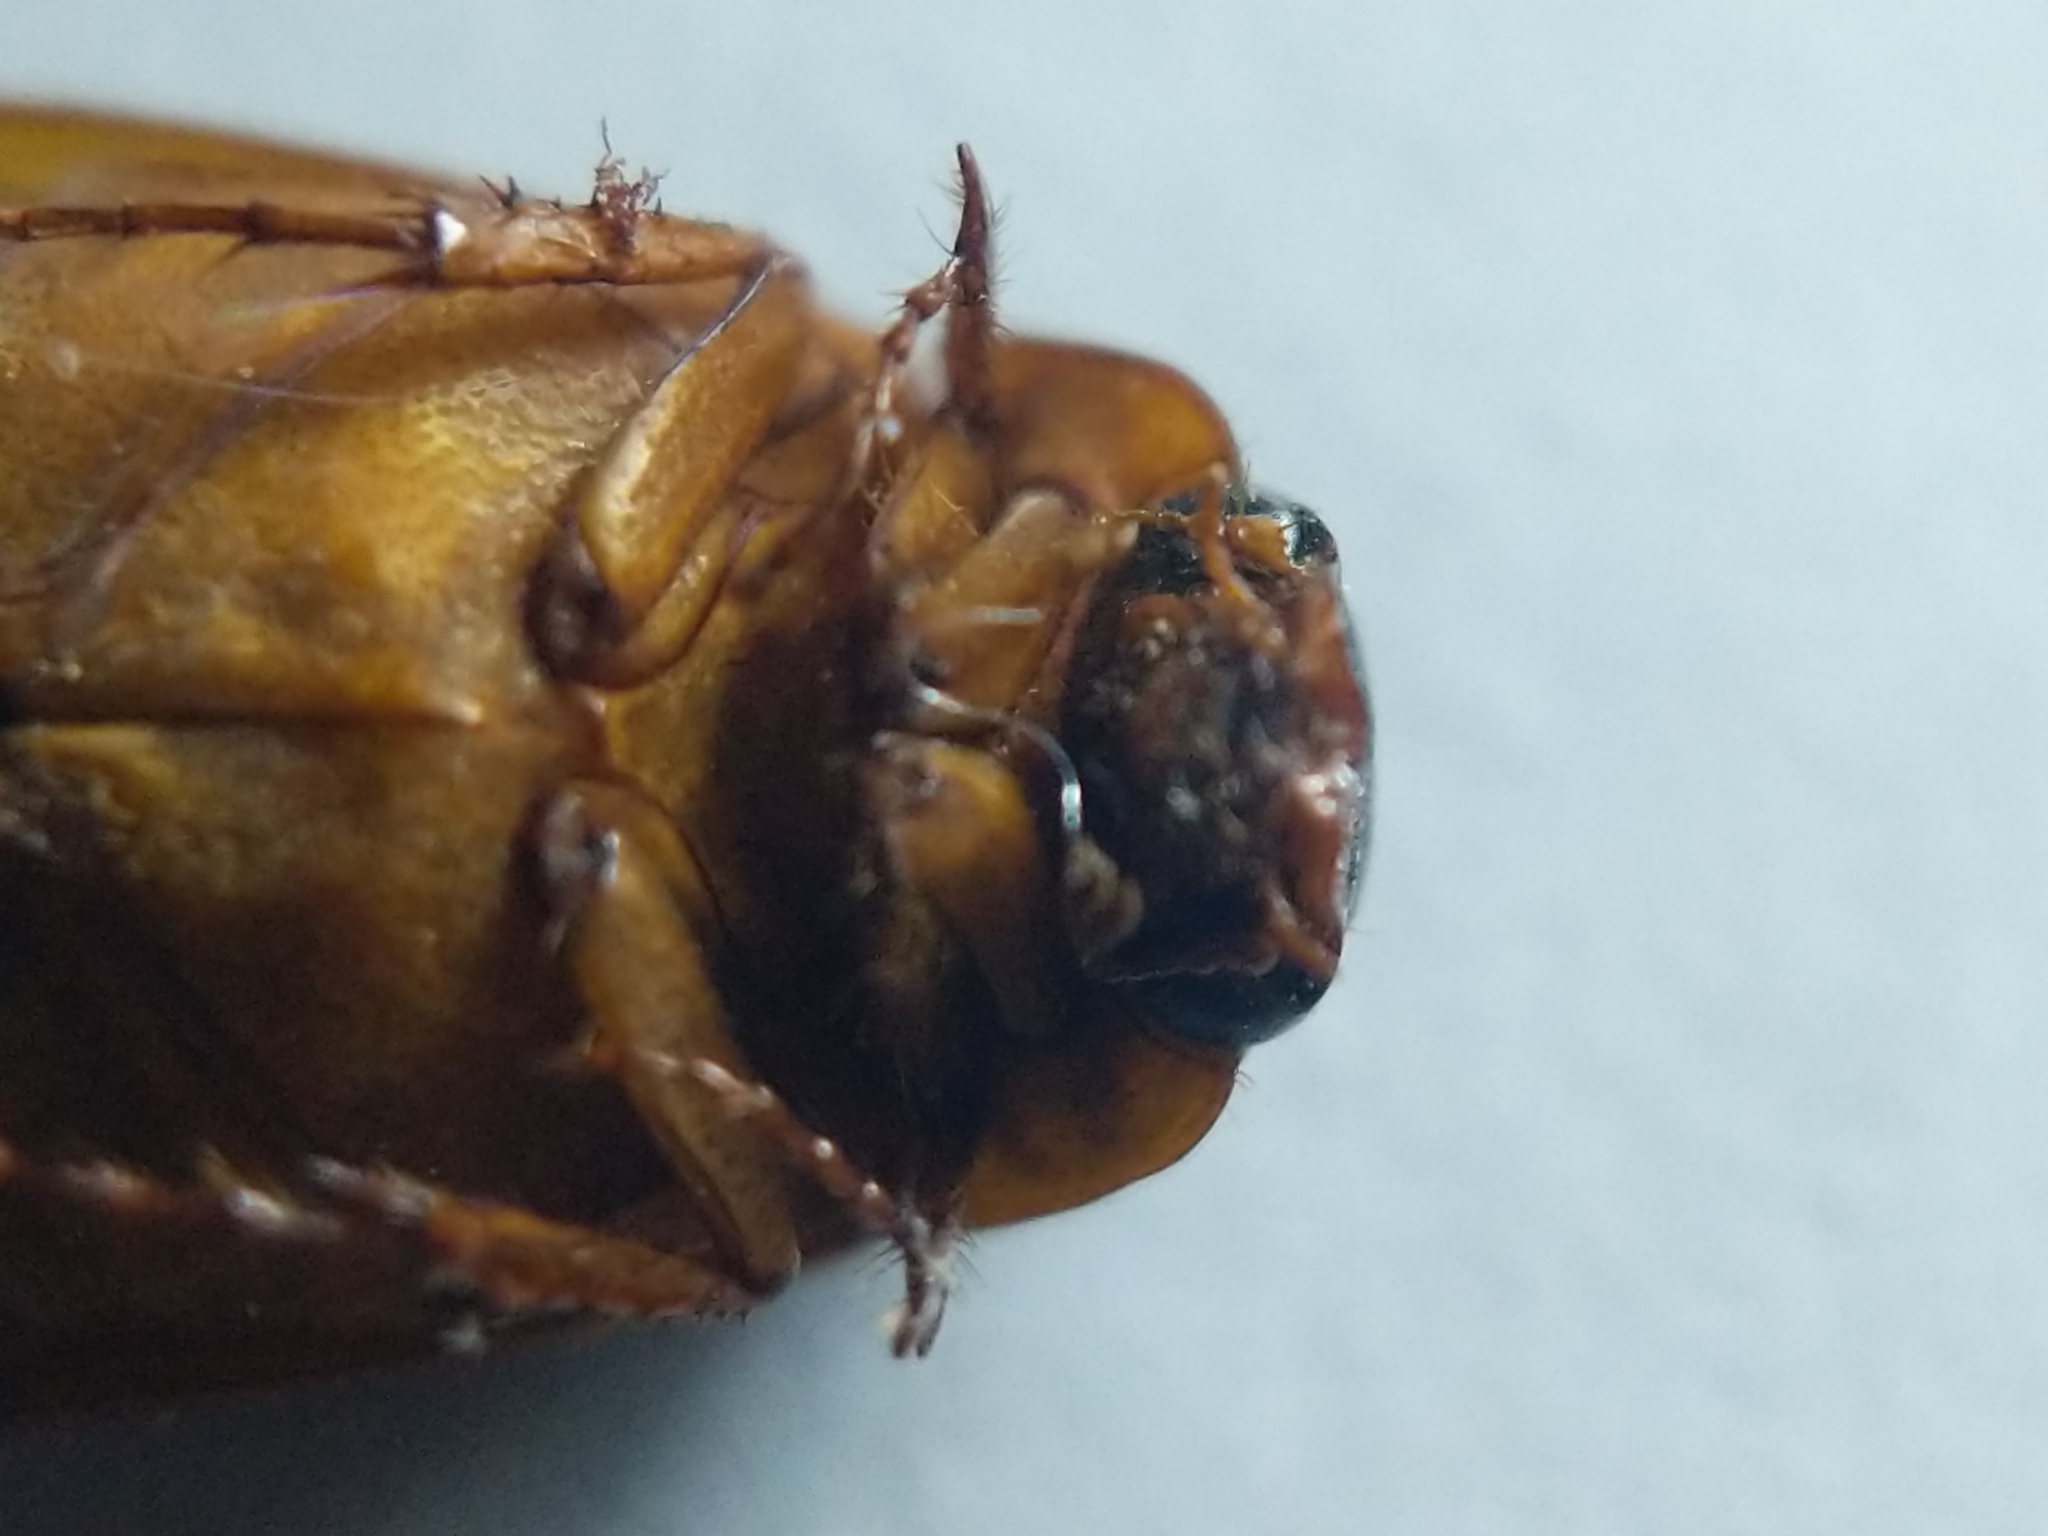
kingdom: Animalia
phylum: Arthropoda
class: Insecta
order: Coleoptera
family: Scarabaeidae
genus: Nipponoserica
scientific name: Nipponoserica peregrina
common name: Scarab beetle
